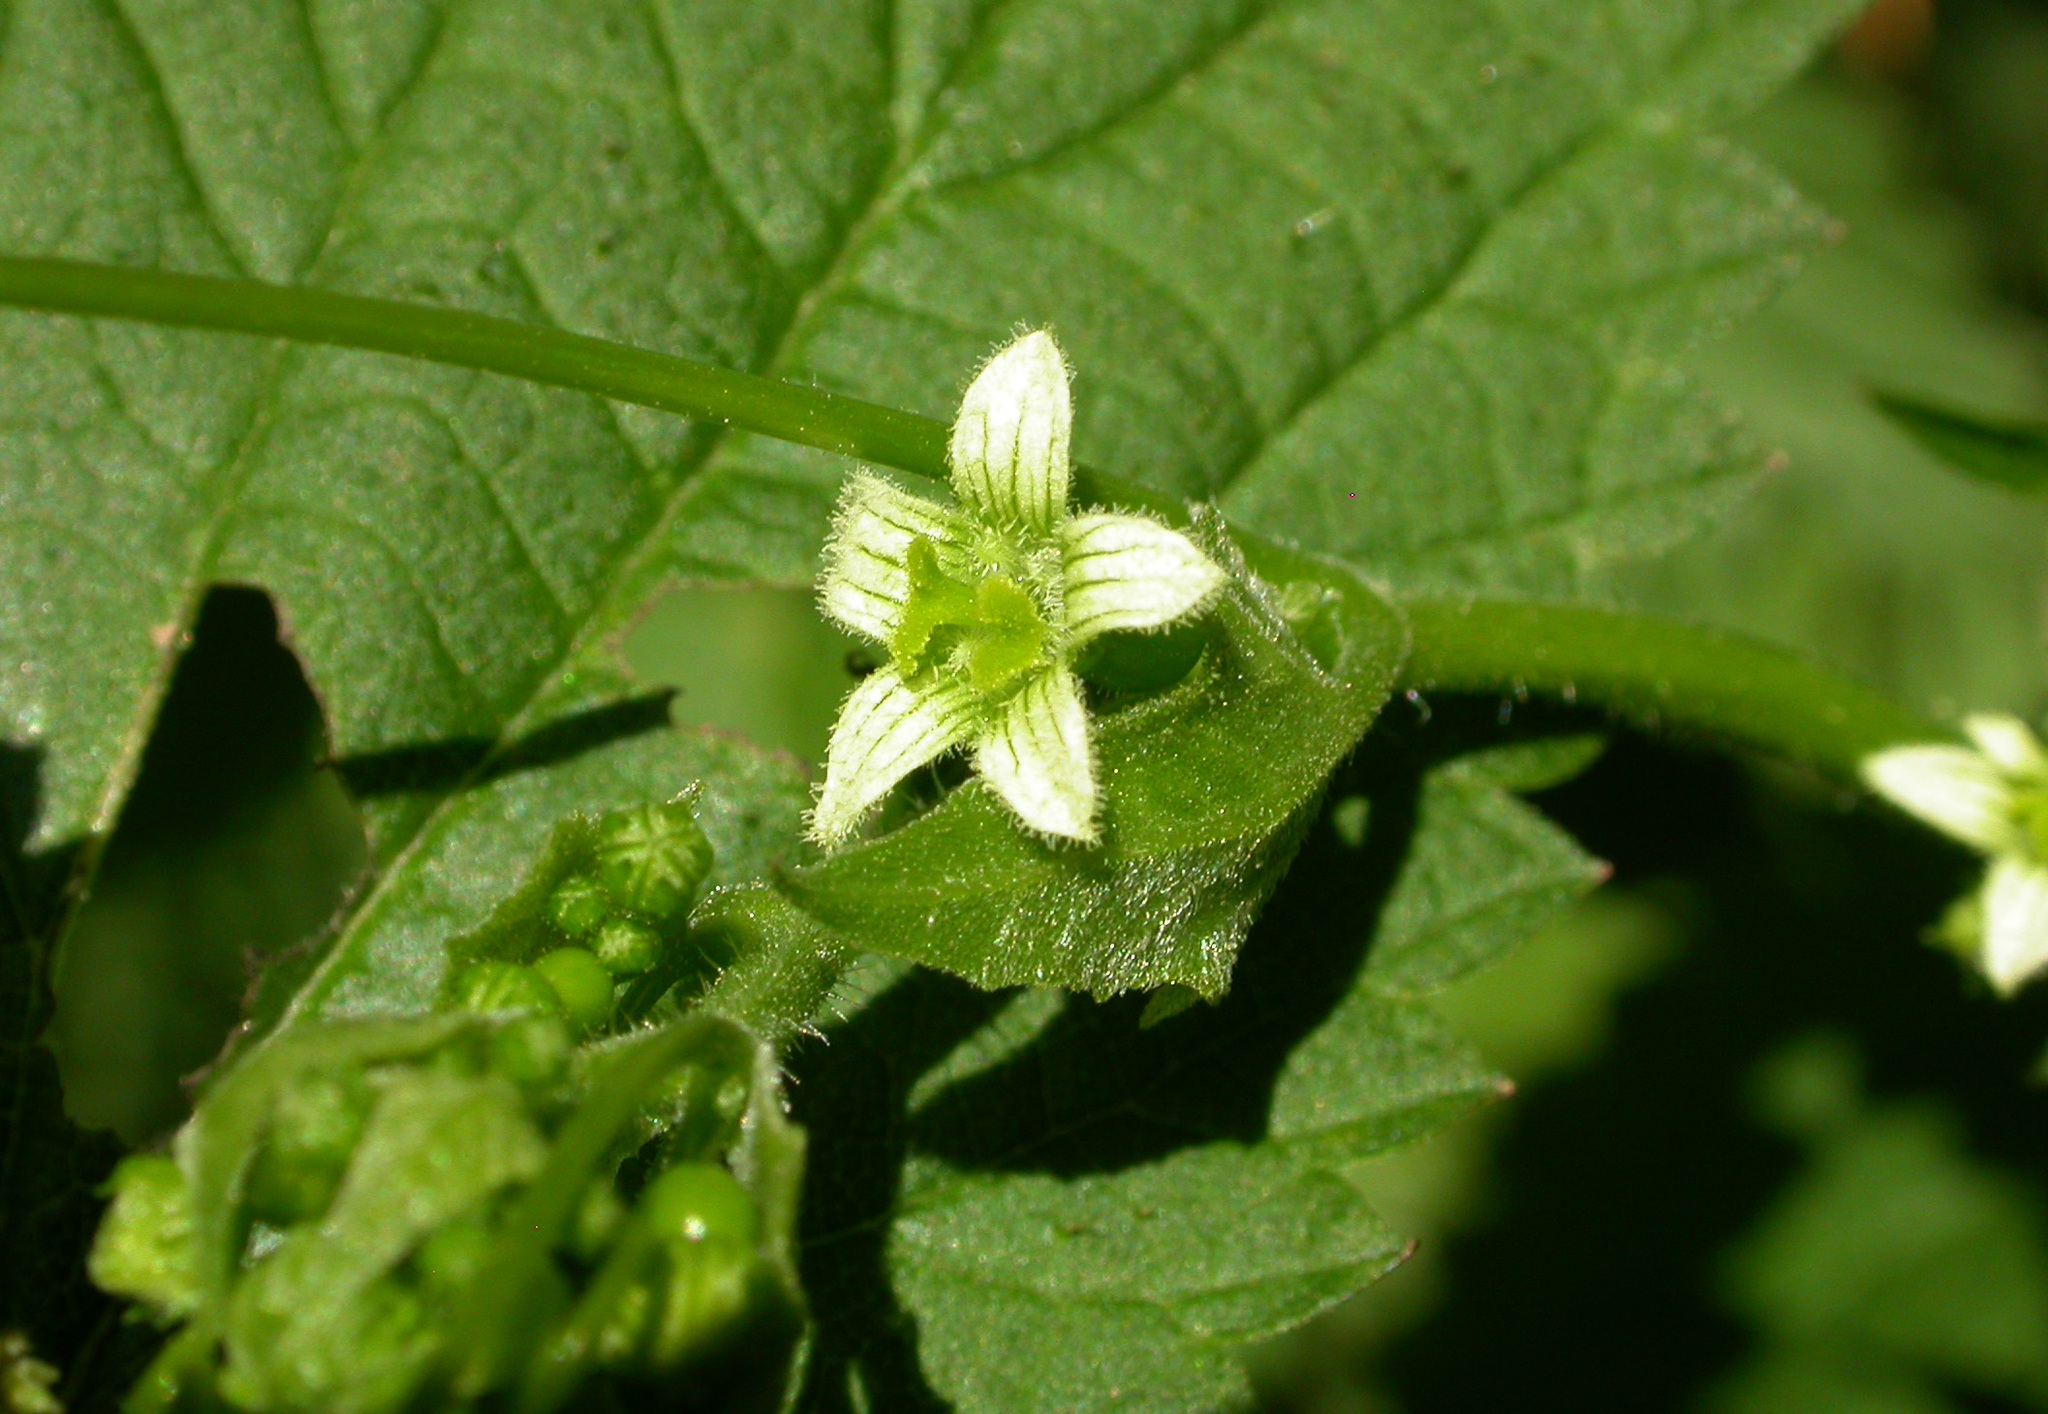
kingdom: Plantae
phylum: Tracheophyta
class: Magnoliopsida
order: Cucurbitales
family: Cucurbitaceae
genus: Bryonia
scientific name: Bryonia dioica
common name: White bryony
